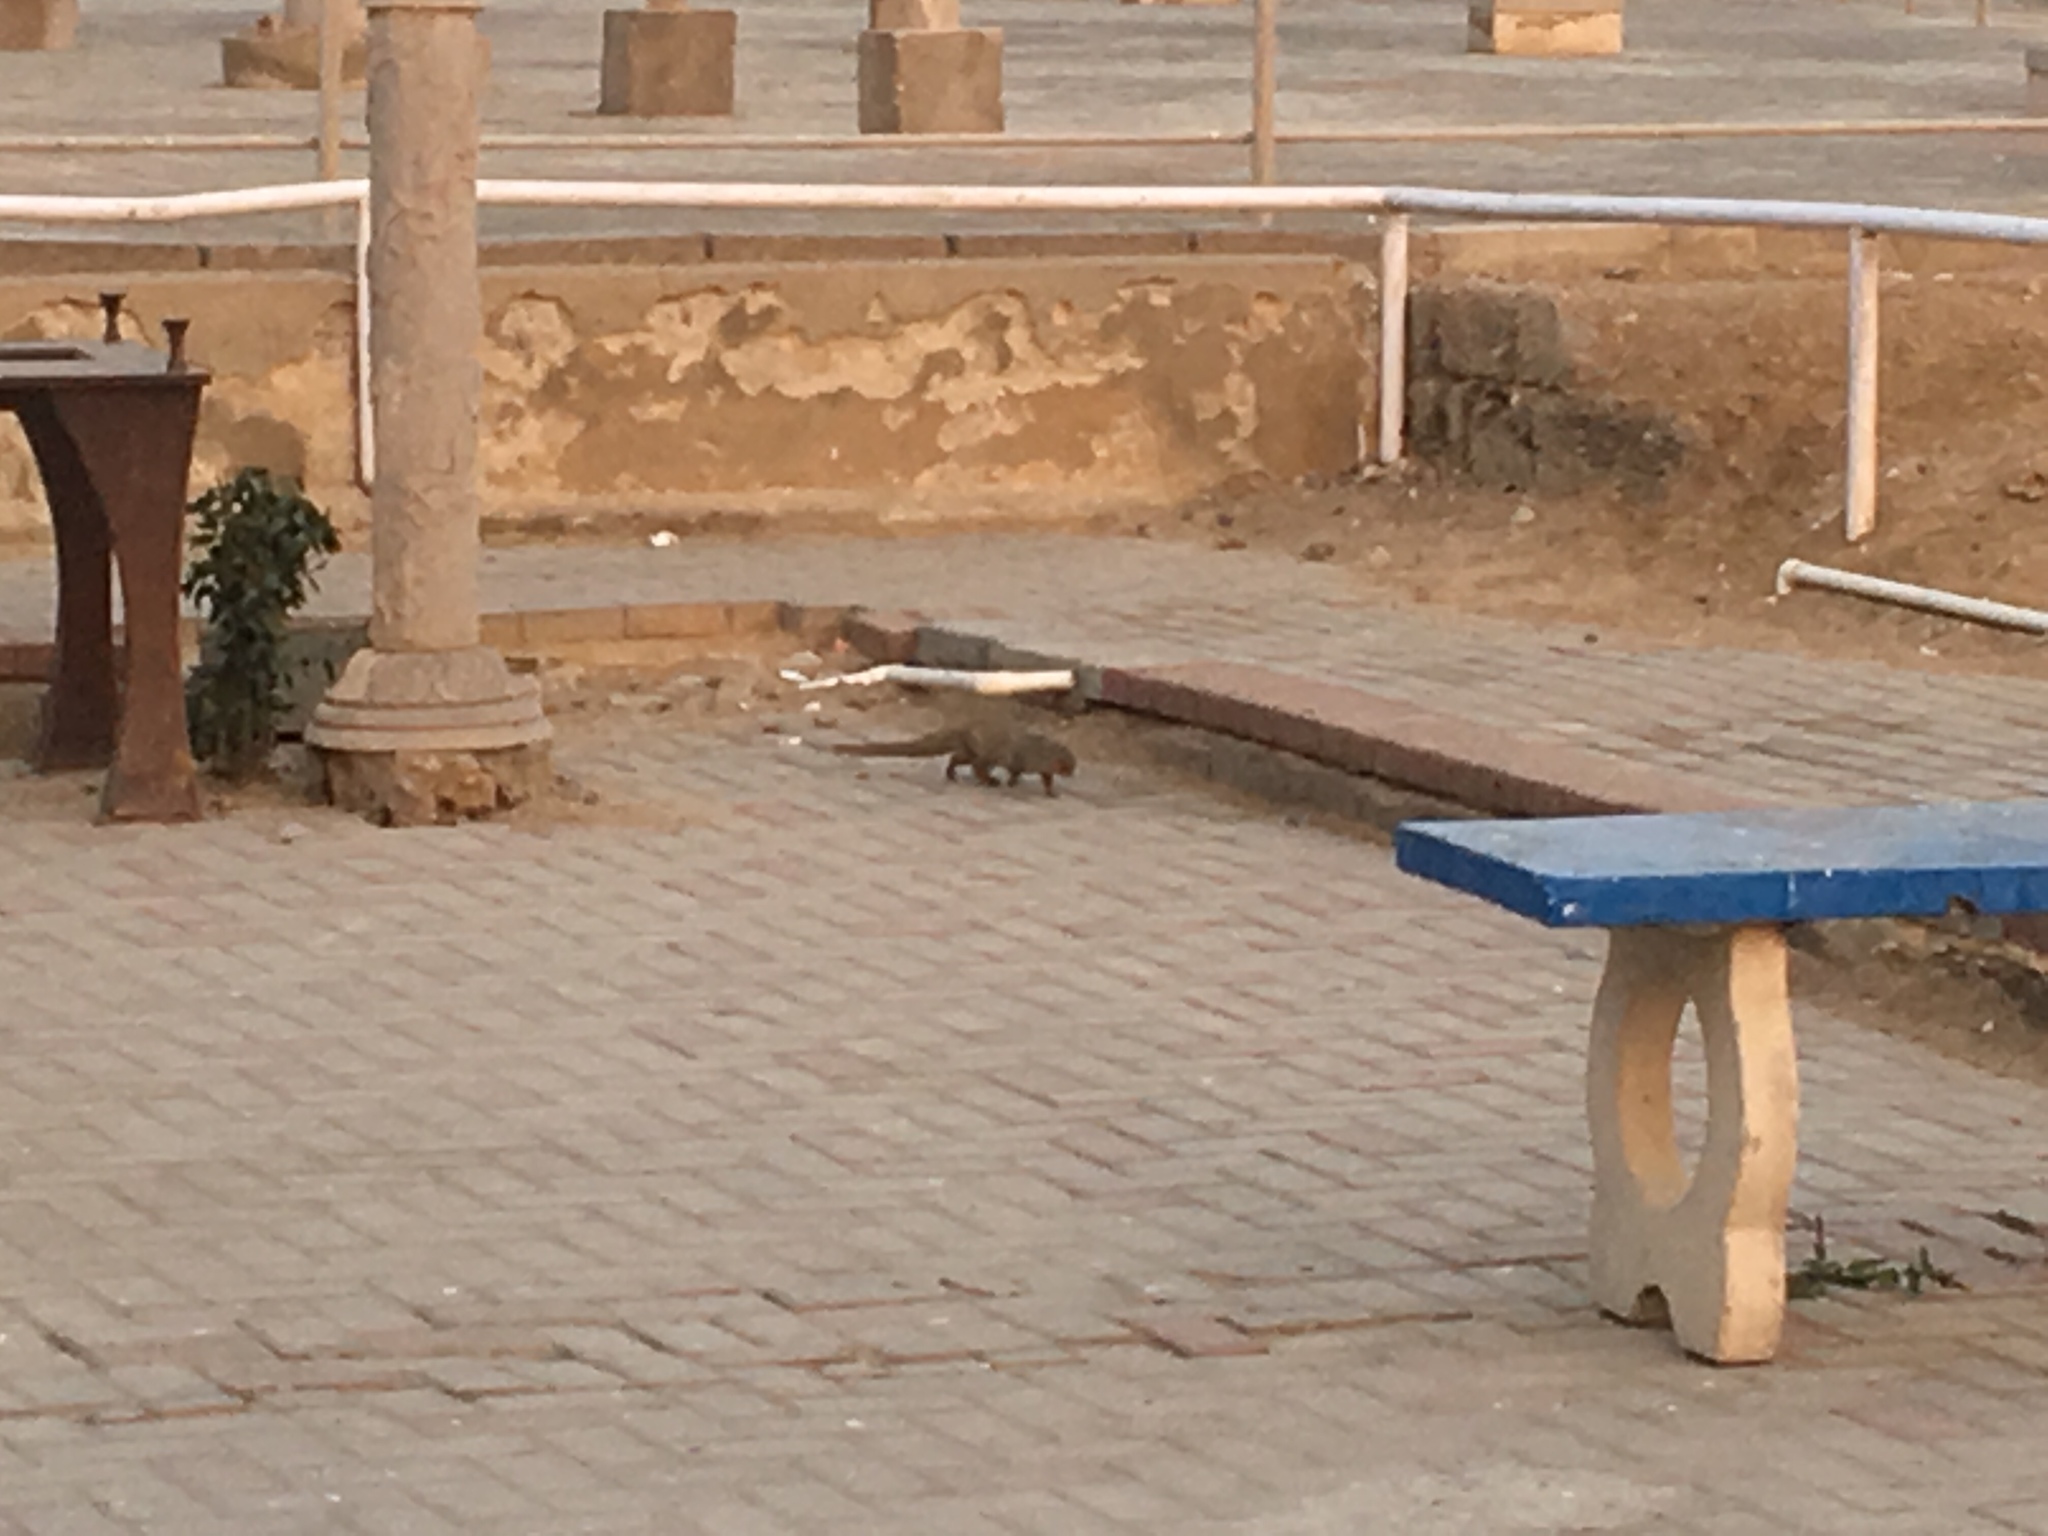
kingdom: Animalia
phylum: Chordata
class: Mammalia
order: Carnivora
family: Herpestidae
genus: Herpestes
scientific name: Herpestes javanicus
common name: Small asian mongoose
